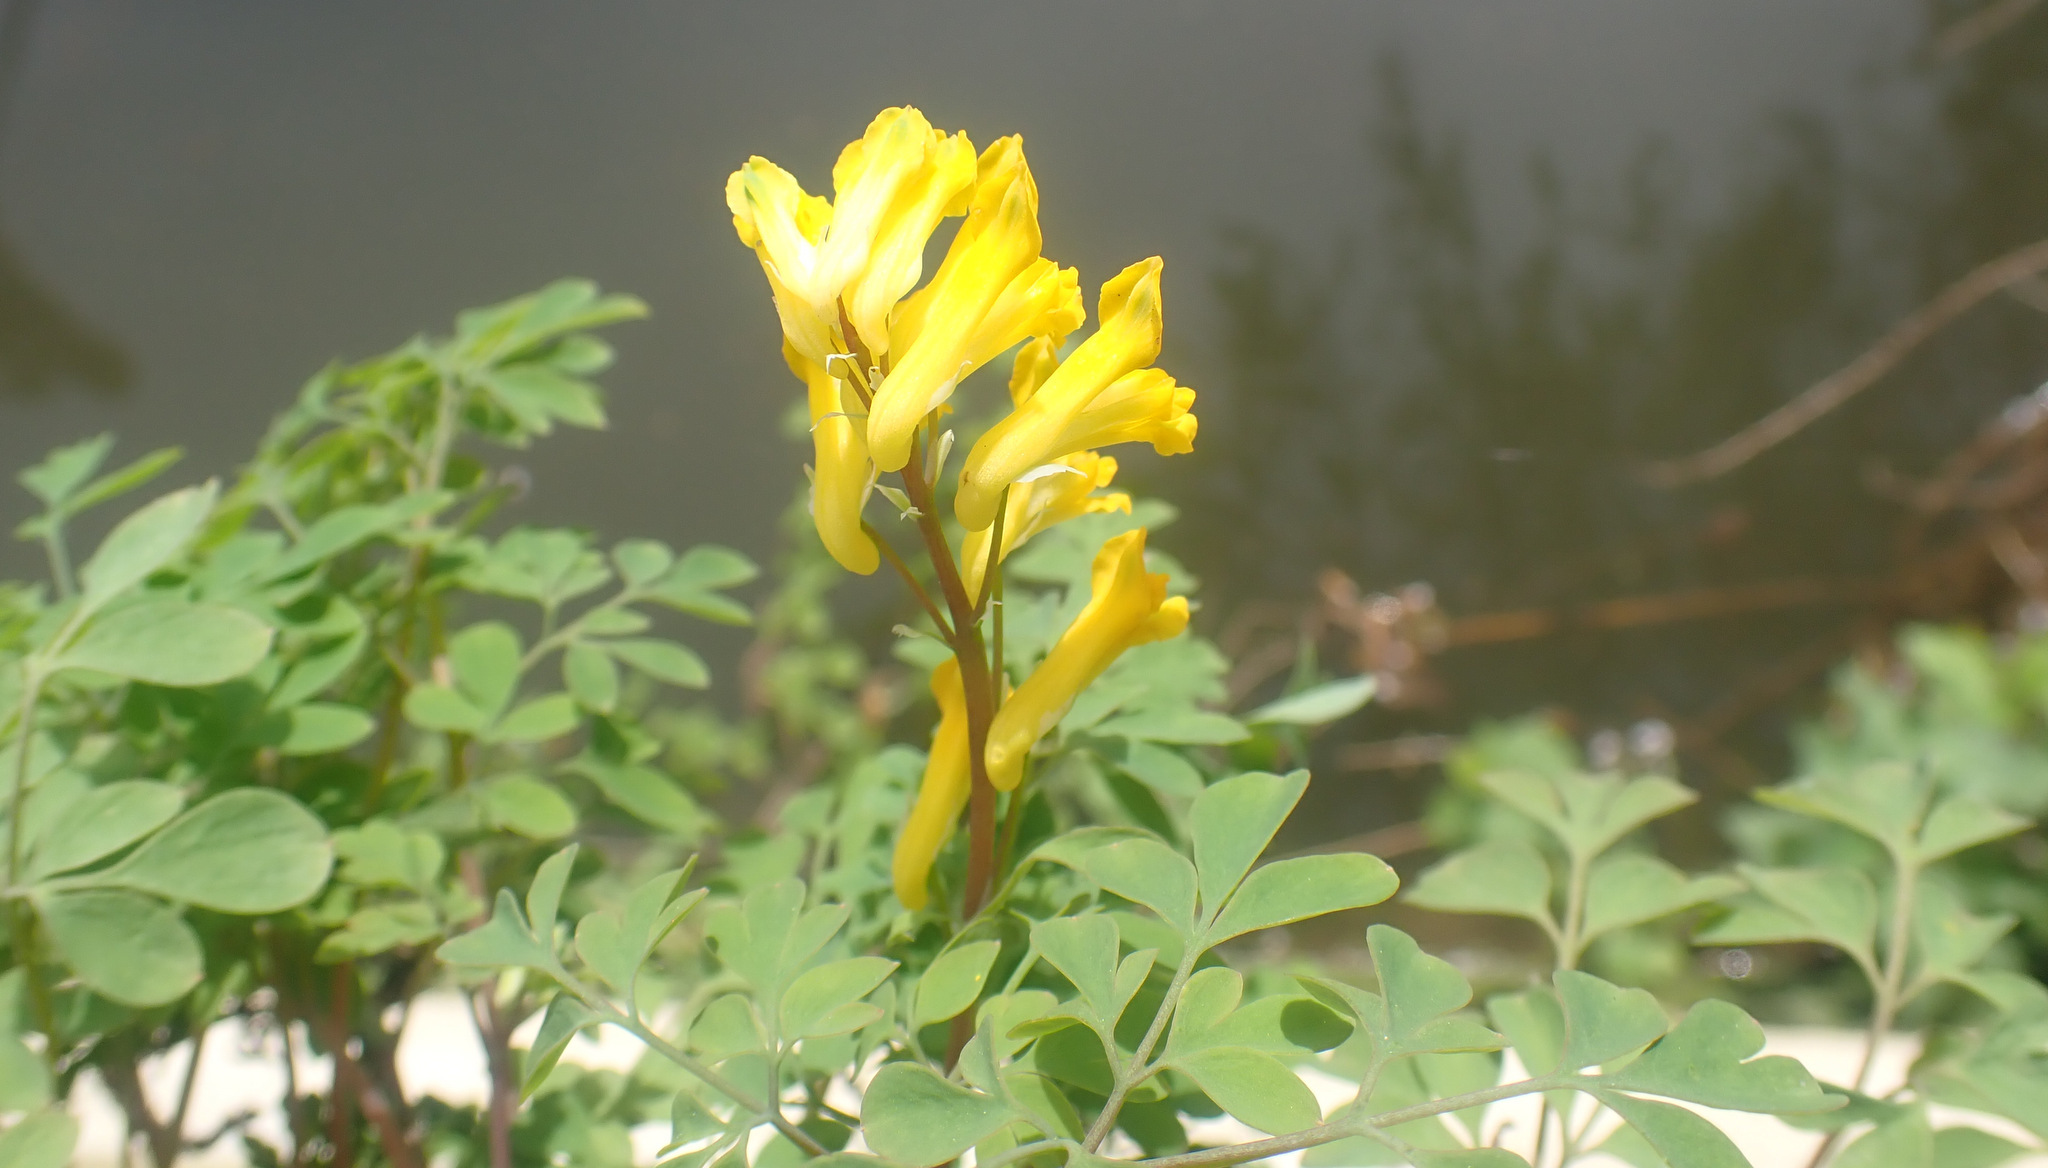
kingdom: Plantae
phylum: Tracheophyta
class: Magnoliopsida
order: Ranunculales
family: Papaveraceae
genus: Pseudofumaria
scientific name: Pseudofumaria lutea
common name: Yellow corydalis
